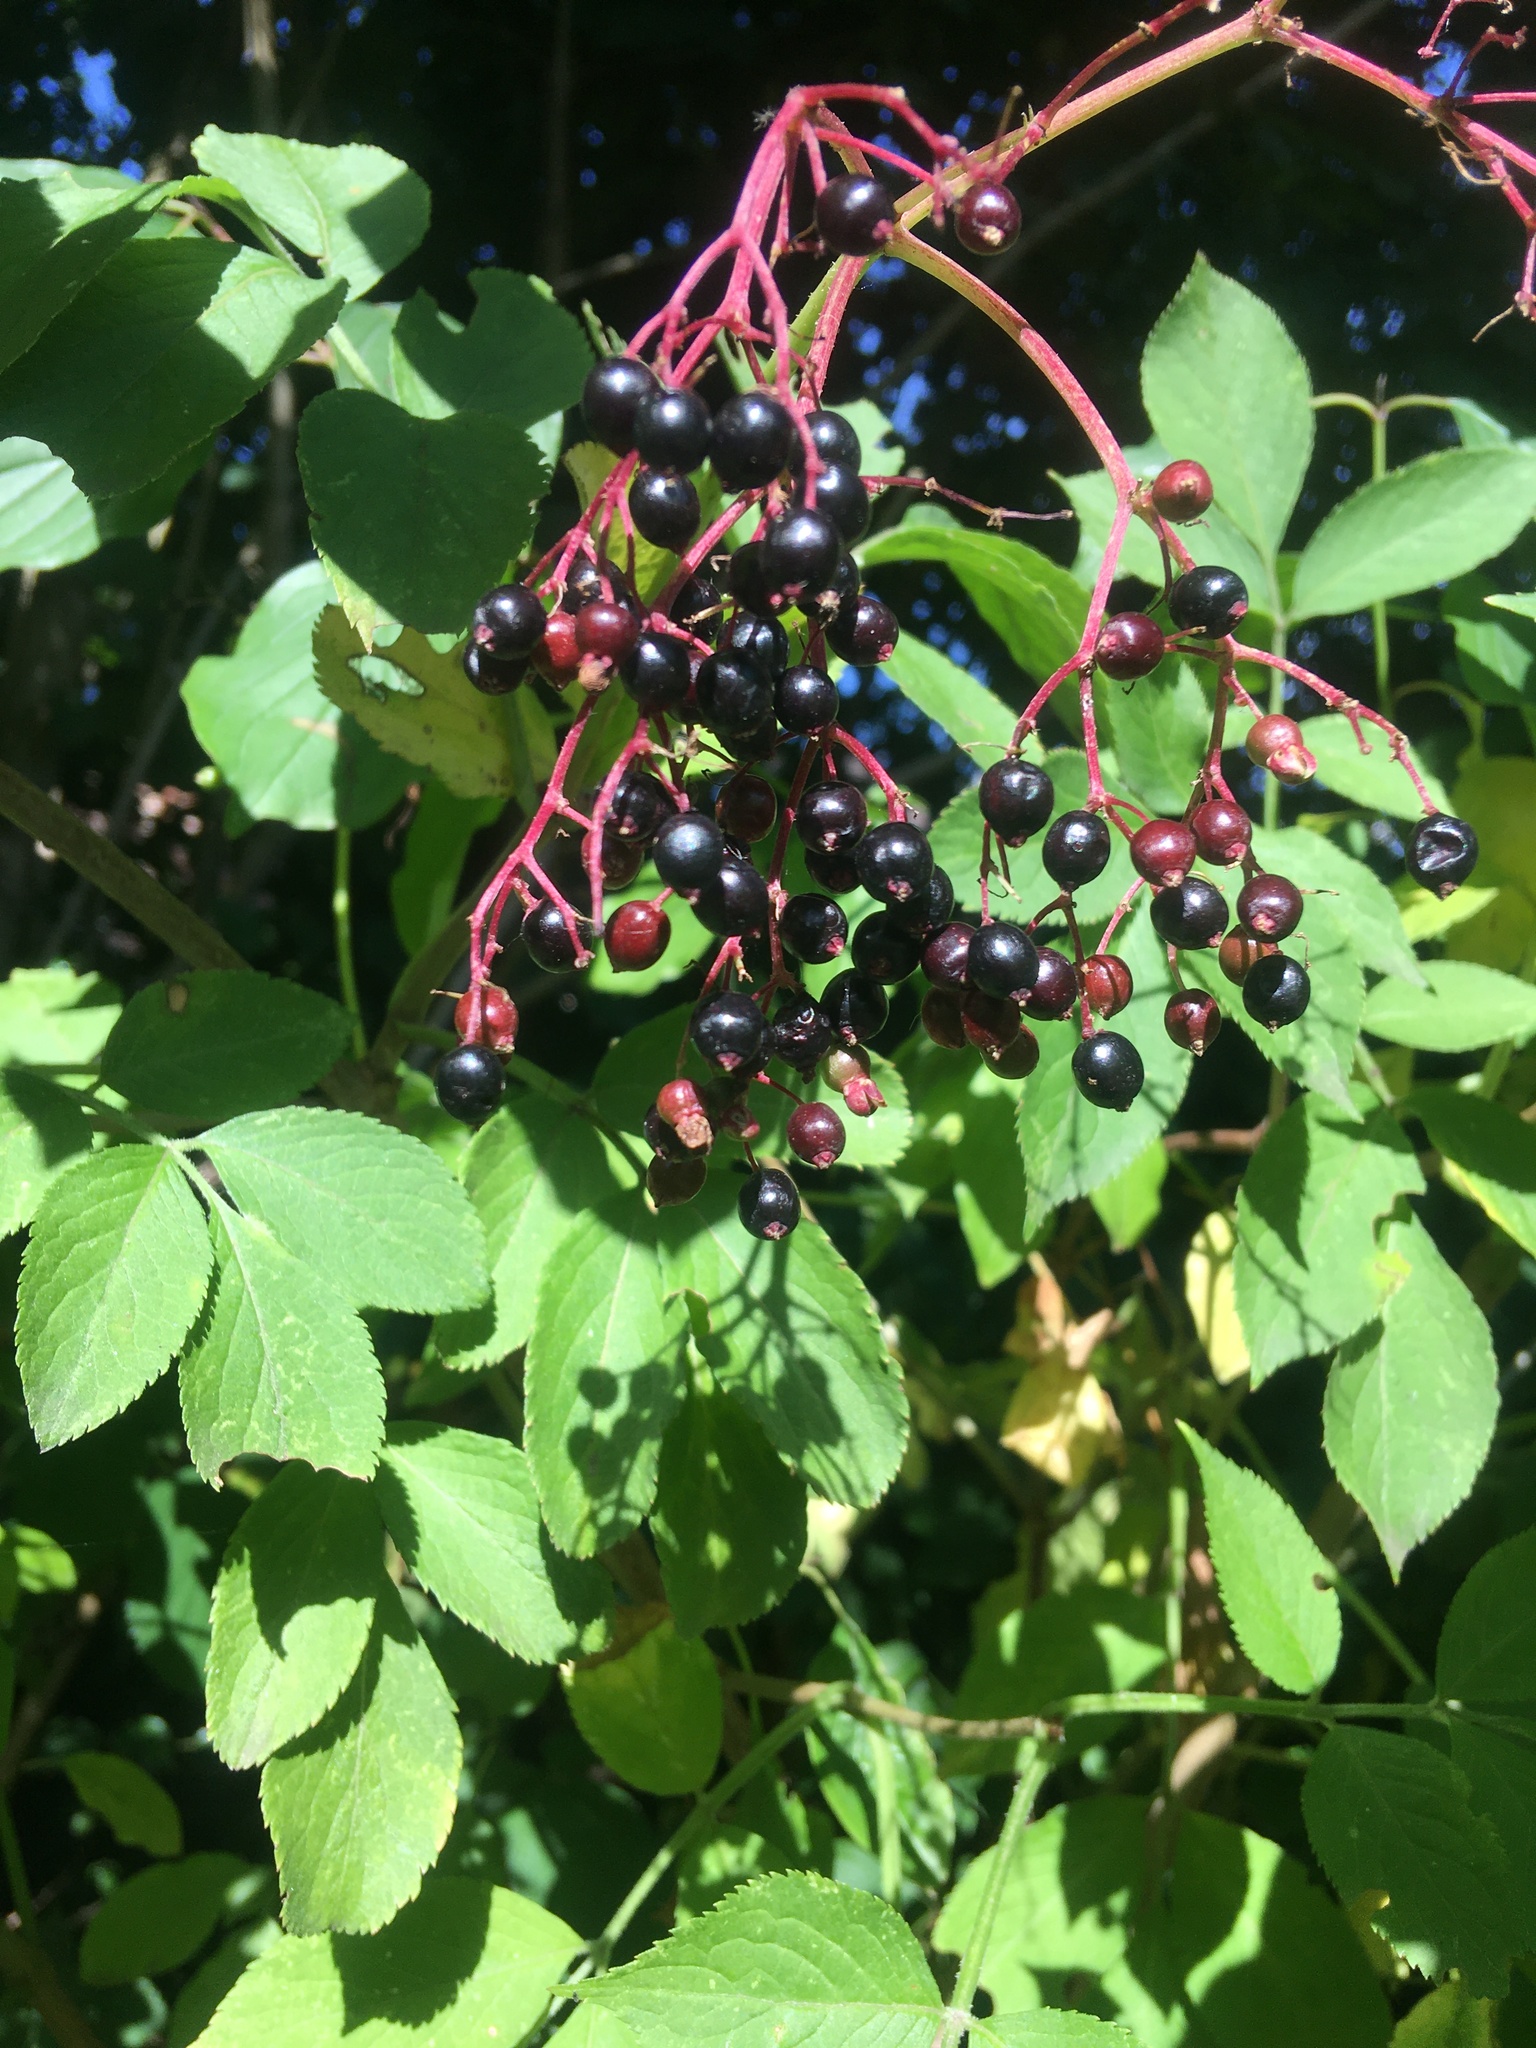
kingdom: Plantae
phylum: Tracheophyta
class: Magnoliopsida
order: Dipsacales
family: Viburnaceae
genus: Sambucus
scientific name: Sambucus nigra
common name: Elder
